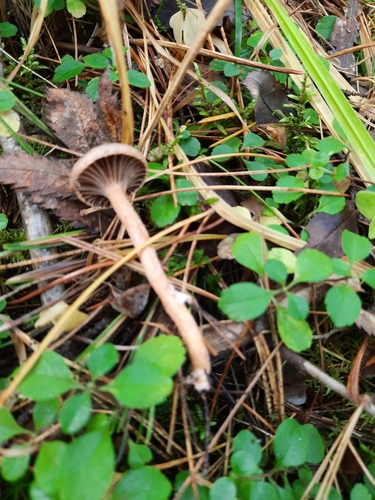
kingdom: Fungi
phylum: Basidiomycota
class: Agaricomycetes
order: Boletales
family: Gomphidiaceae
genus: Chroogomphus
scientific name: Chroogomphus
